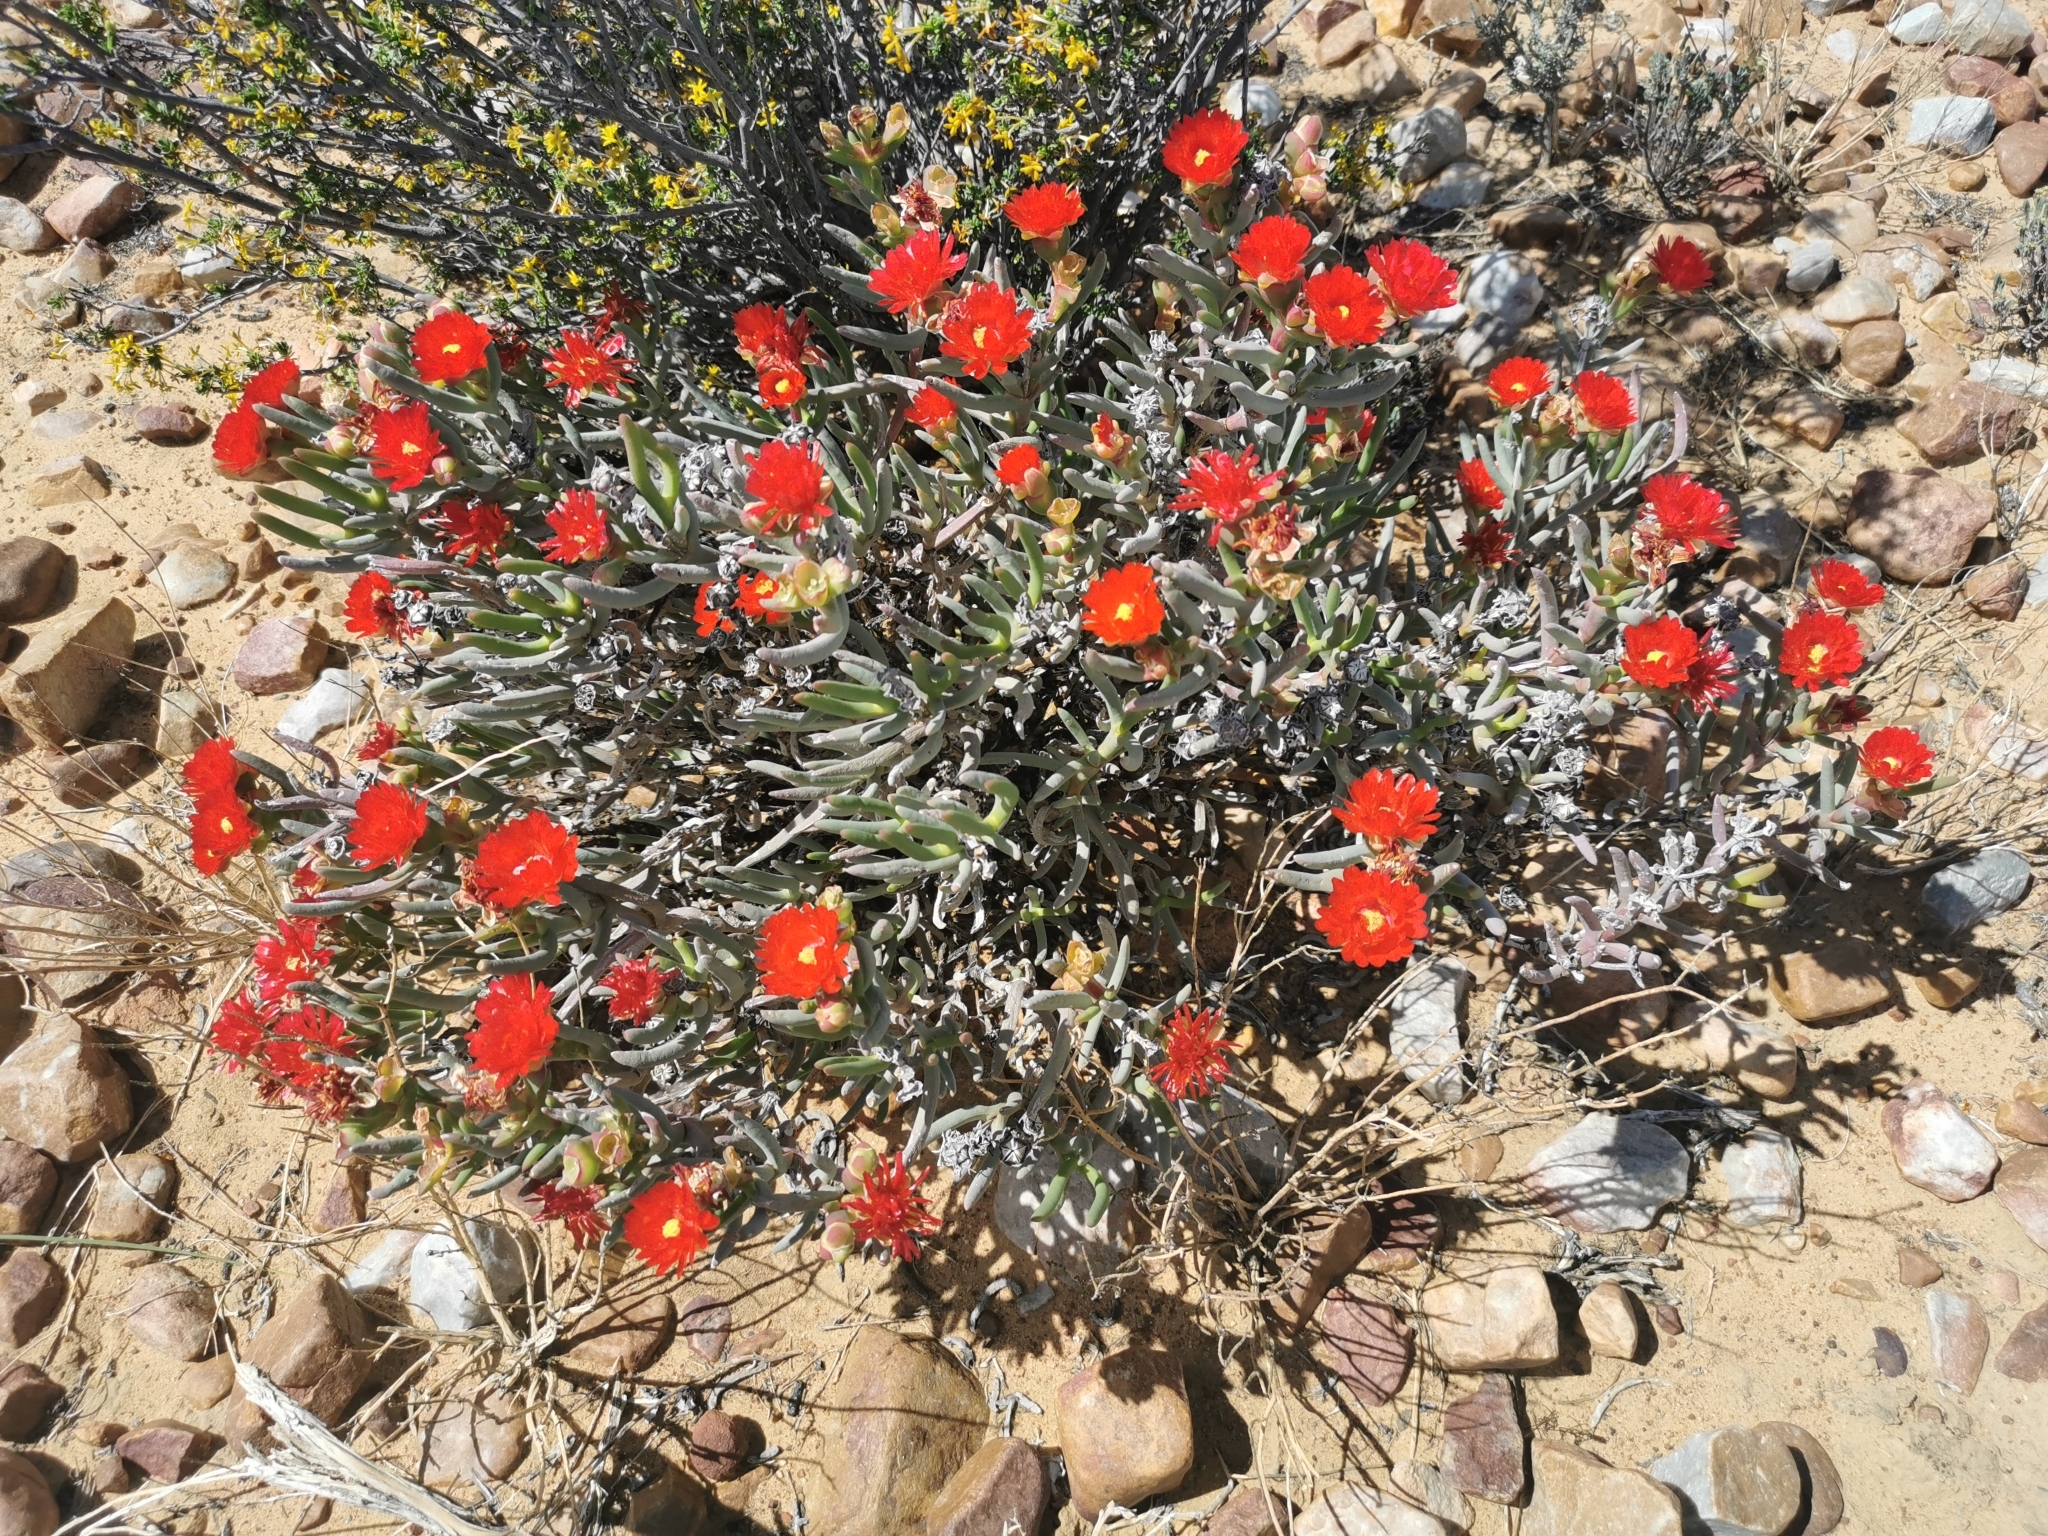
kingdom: Plantae
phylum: Tracheophyta
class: Magnoliopsida
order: Caryophyllales
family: Aizoaceae
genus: Ruschia
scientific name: Ruschia marianae
